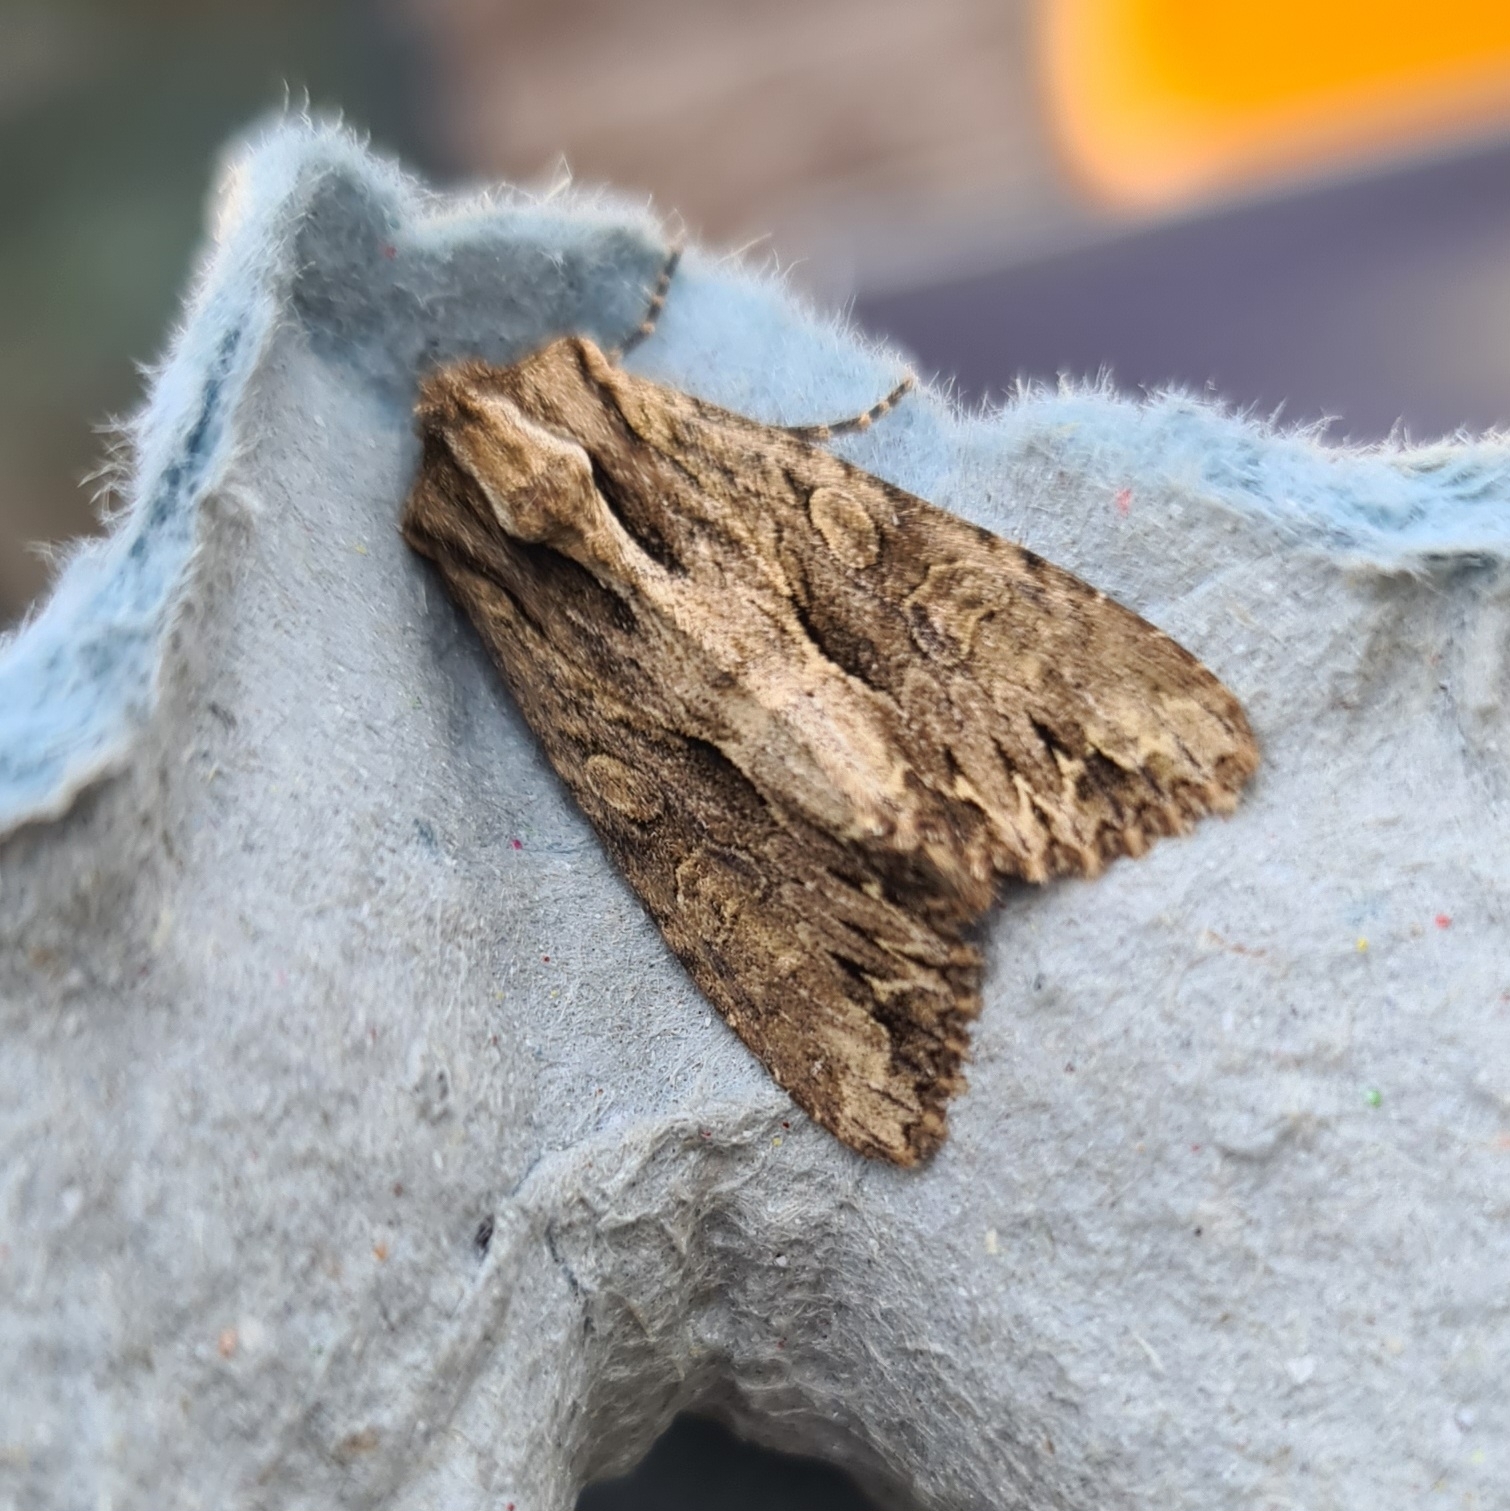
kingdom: Animalia
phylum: Arthropoda
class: Insecta
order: Lepidoptera
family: Noctuidae
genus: Apamea
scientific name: Apamea monoglypha
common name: Dark arches
